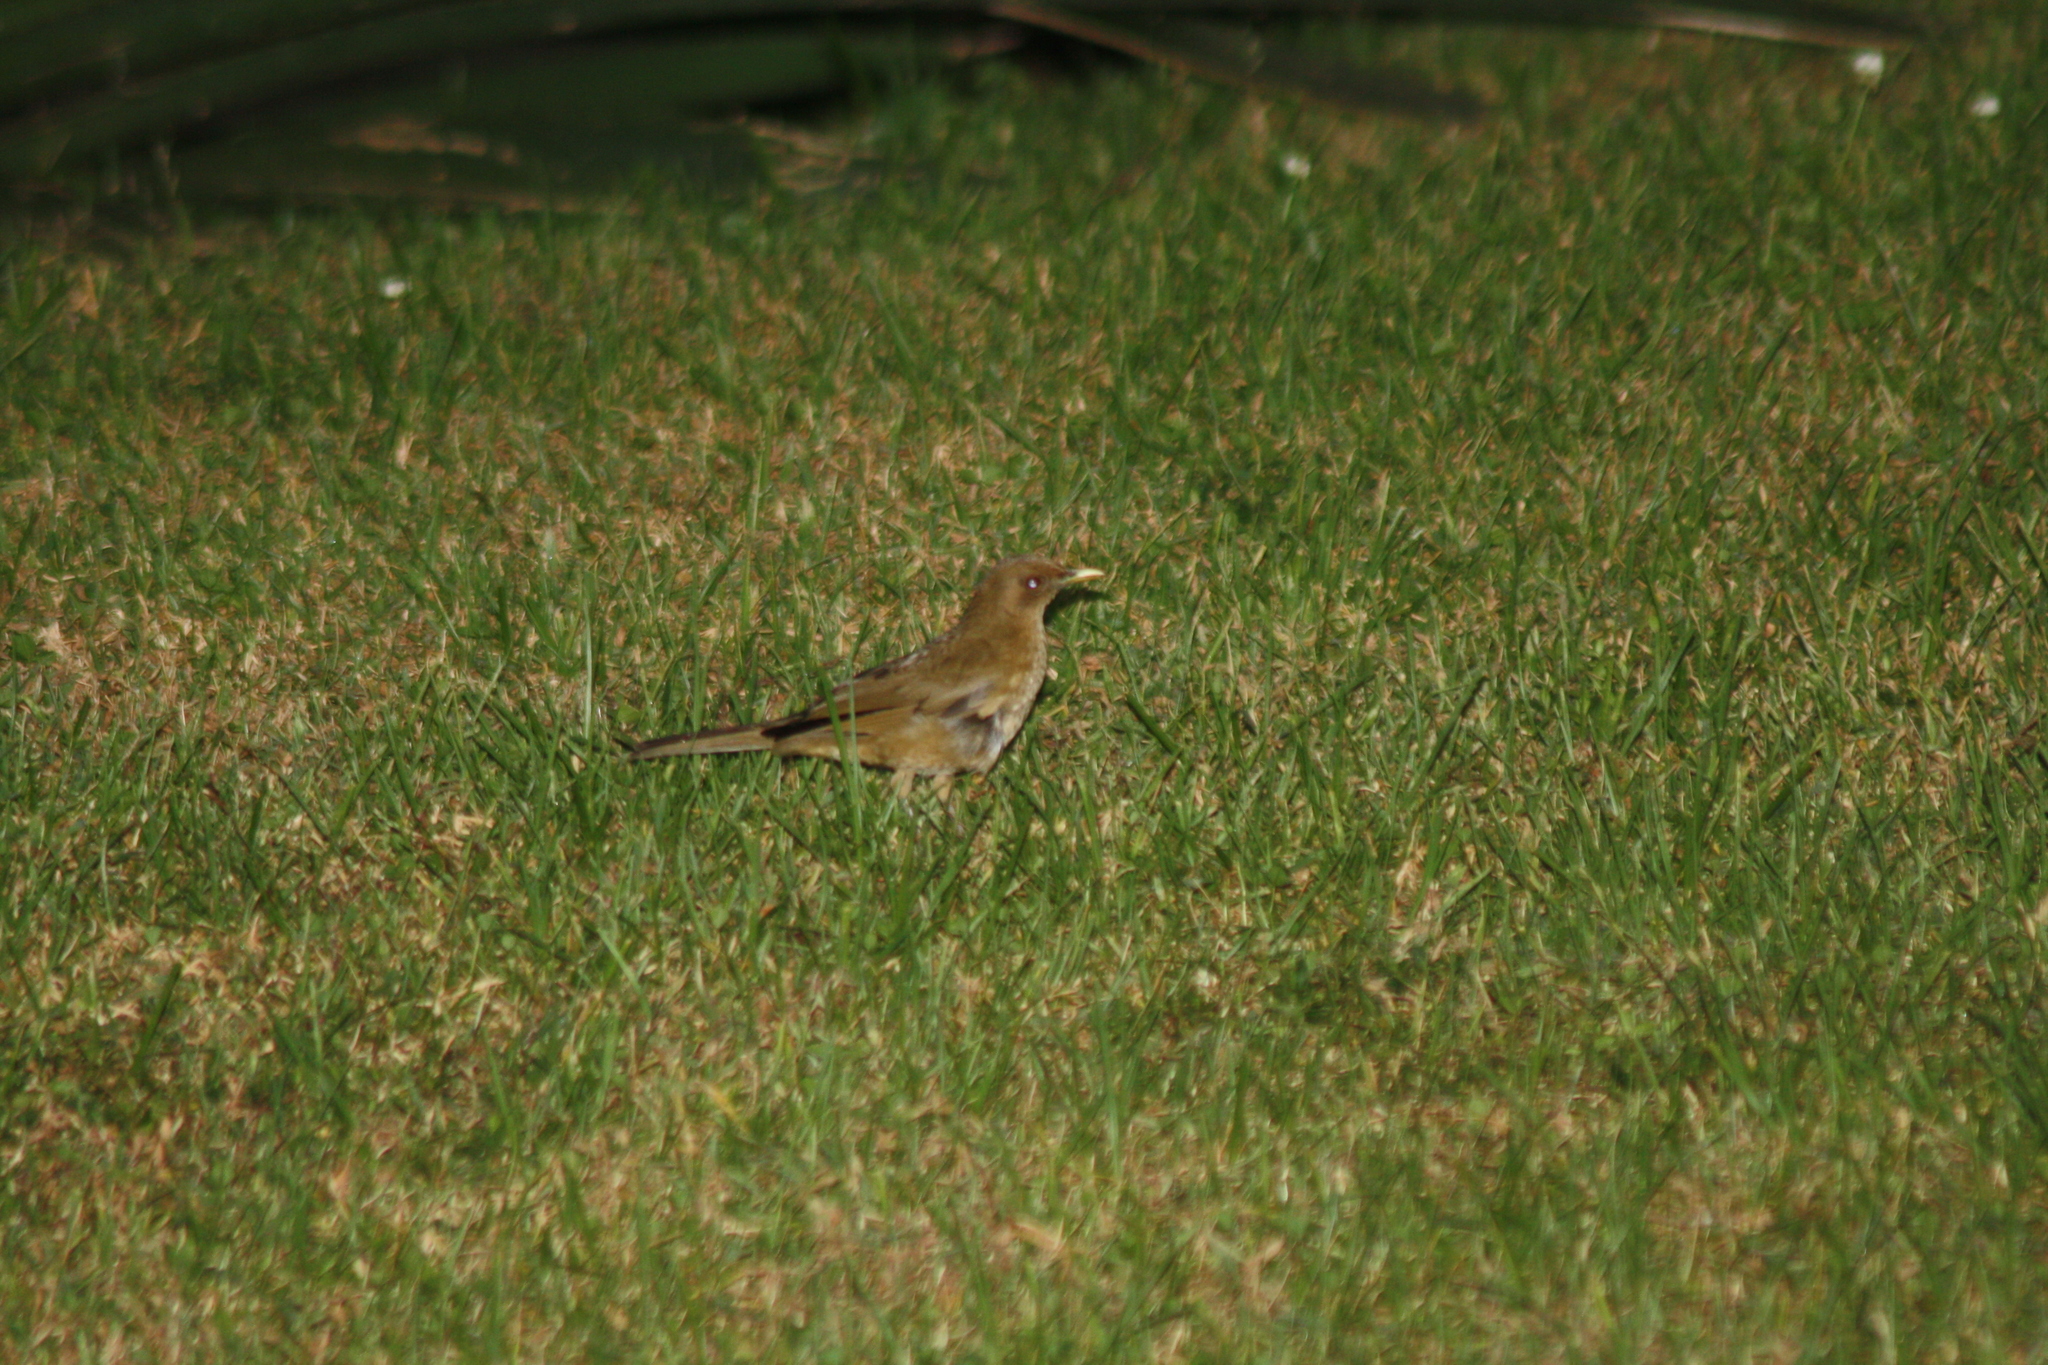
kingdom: Animalia
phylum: Chordata
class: Aves
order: Passeriformes
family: Turdidae
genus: Turdus
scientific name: Turdus grayi
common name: Clay-colored thrush
